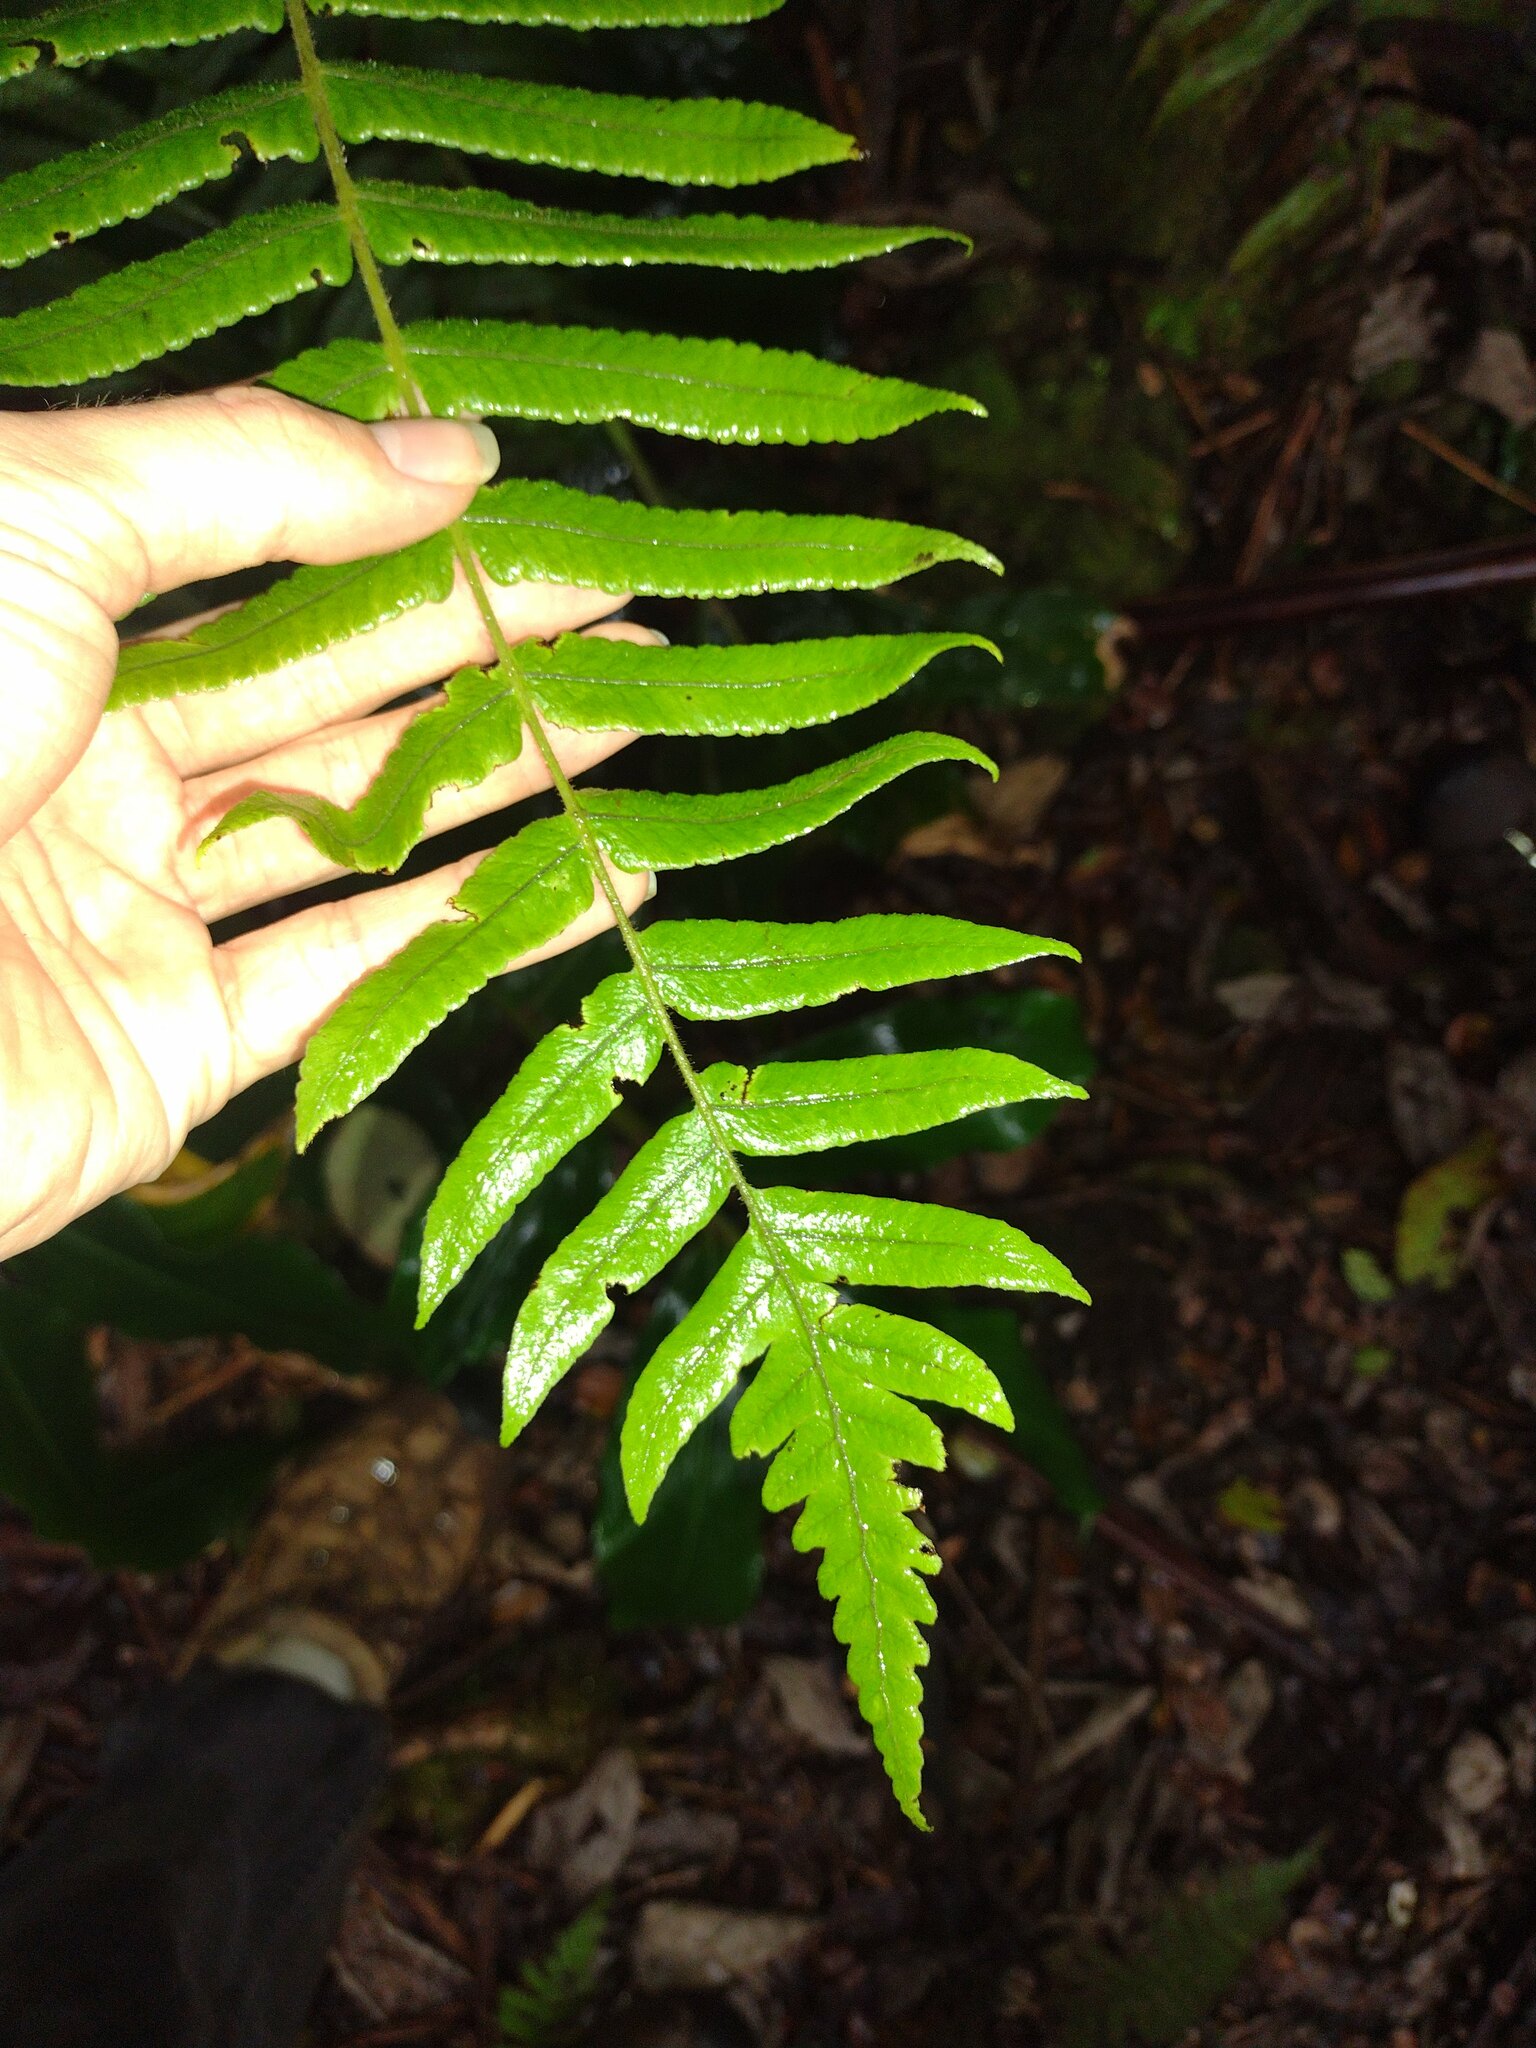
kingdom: Plantae
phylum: Tracheophyta
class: Polypodiopsida
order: Polypodiales
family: Thelypteridaceae
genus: Hoiokula
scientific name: Hoiokula sandwicensis
